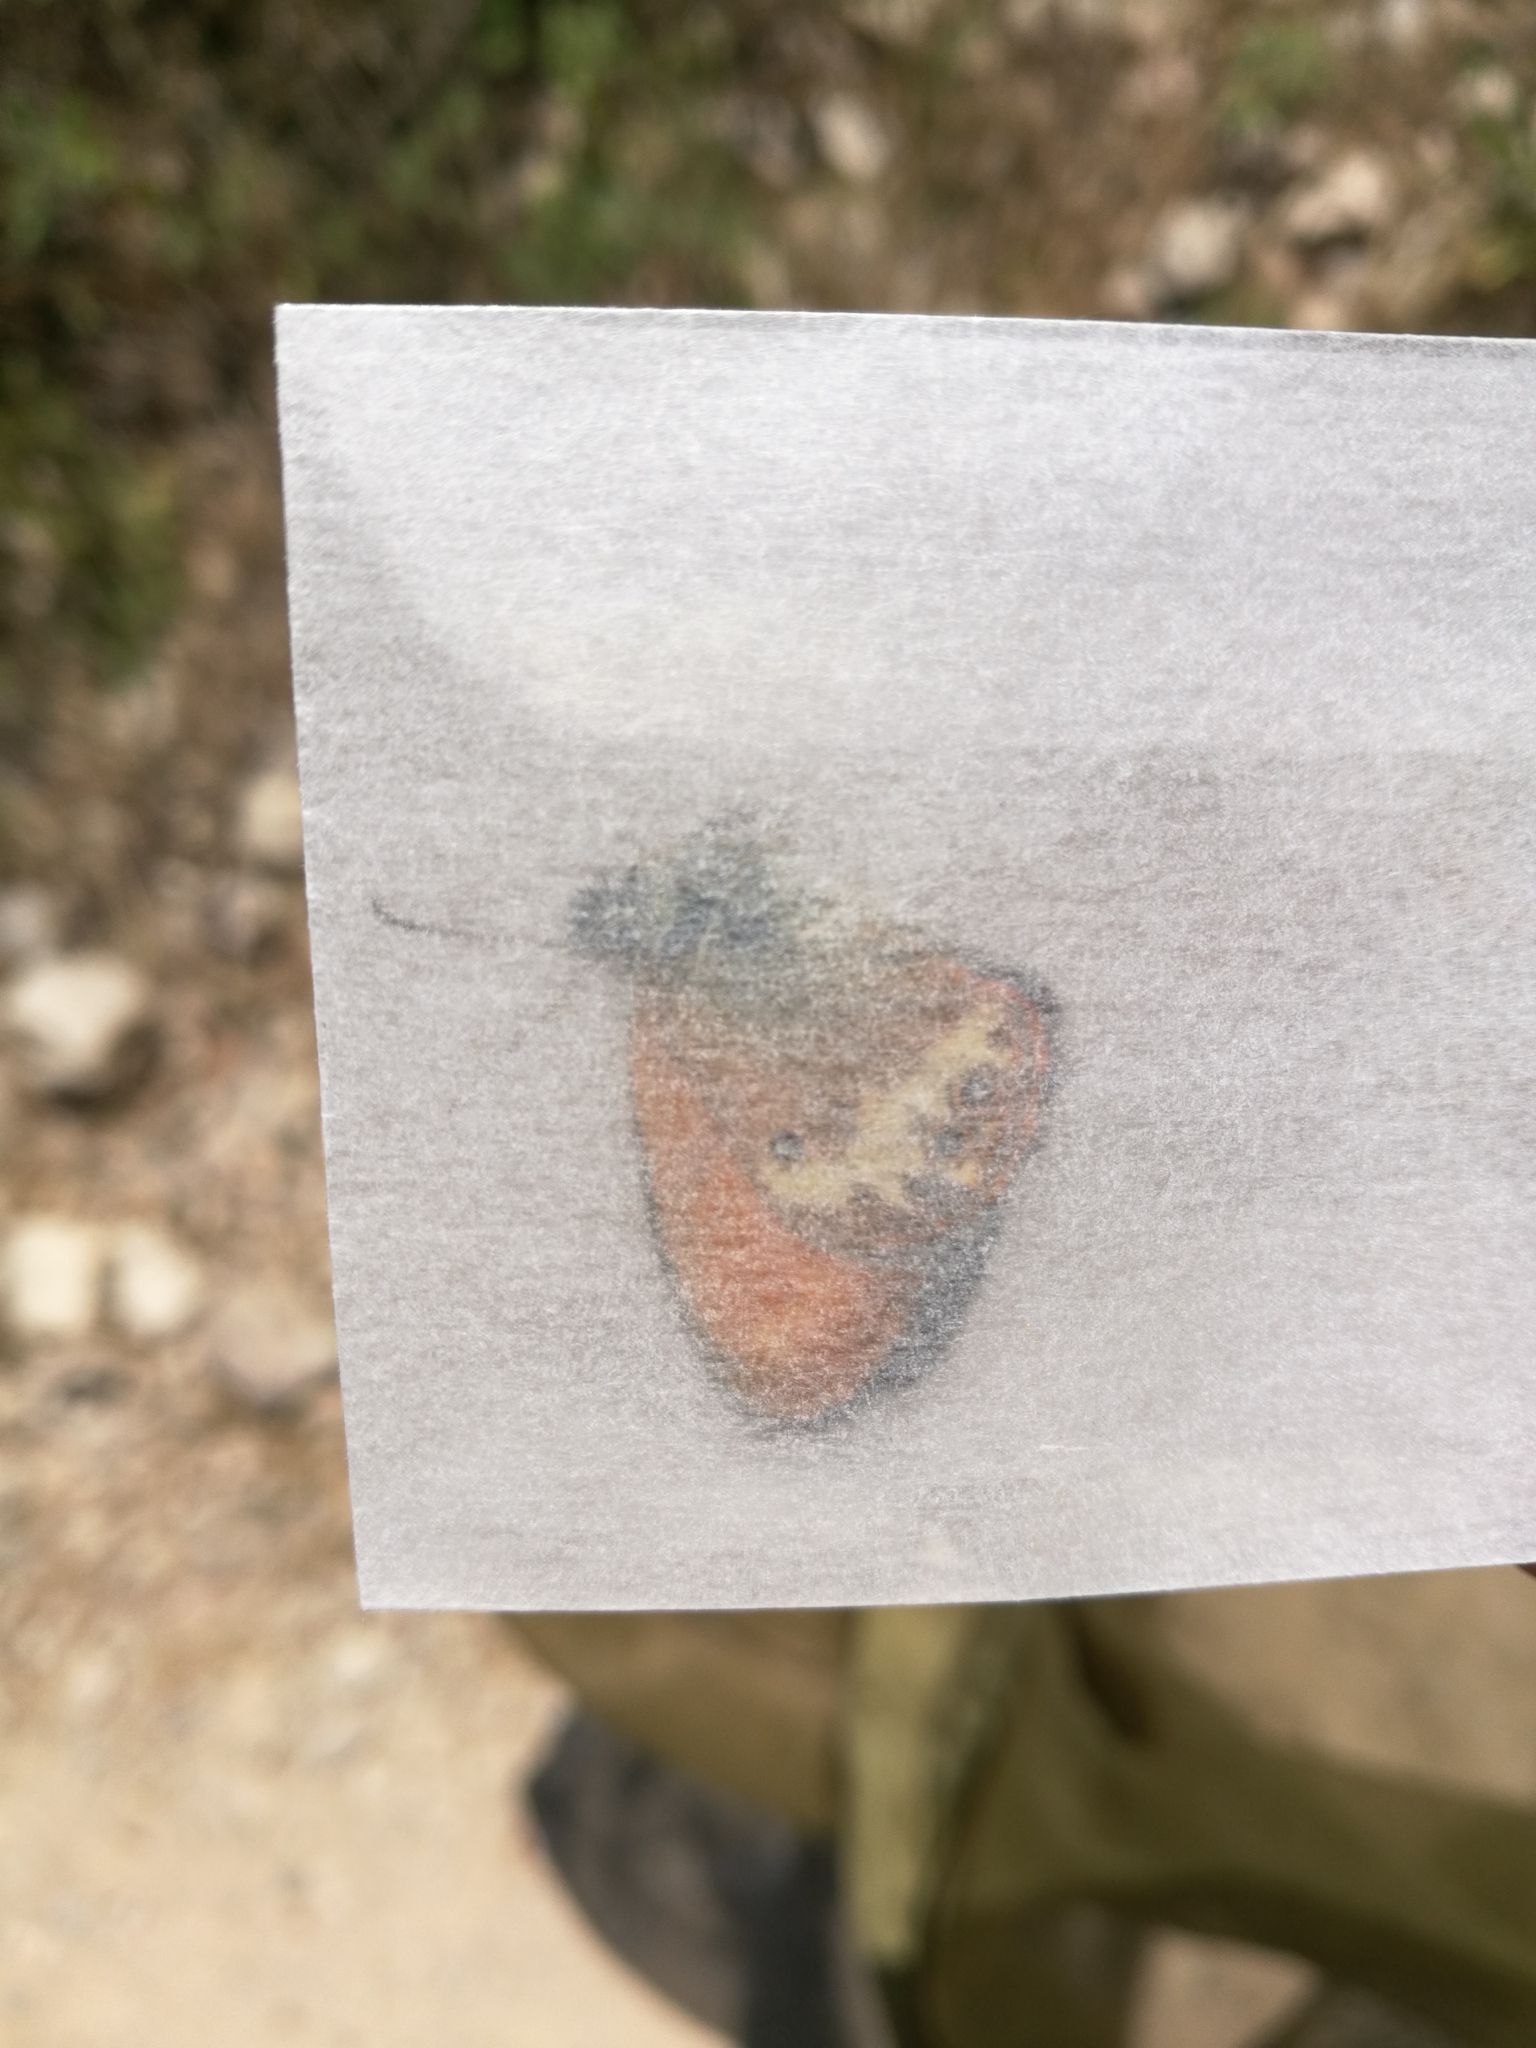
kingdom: Animalia
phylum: Arthropoda
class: Insecta
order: Lepidoptera
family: Nymphalidae
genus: Coenonympha
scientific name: Coenonympha arcania
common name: Pearly heath
